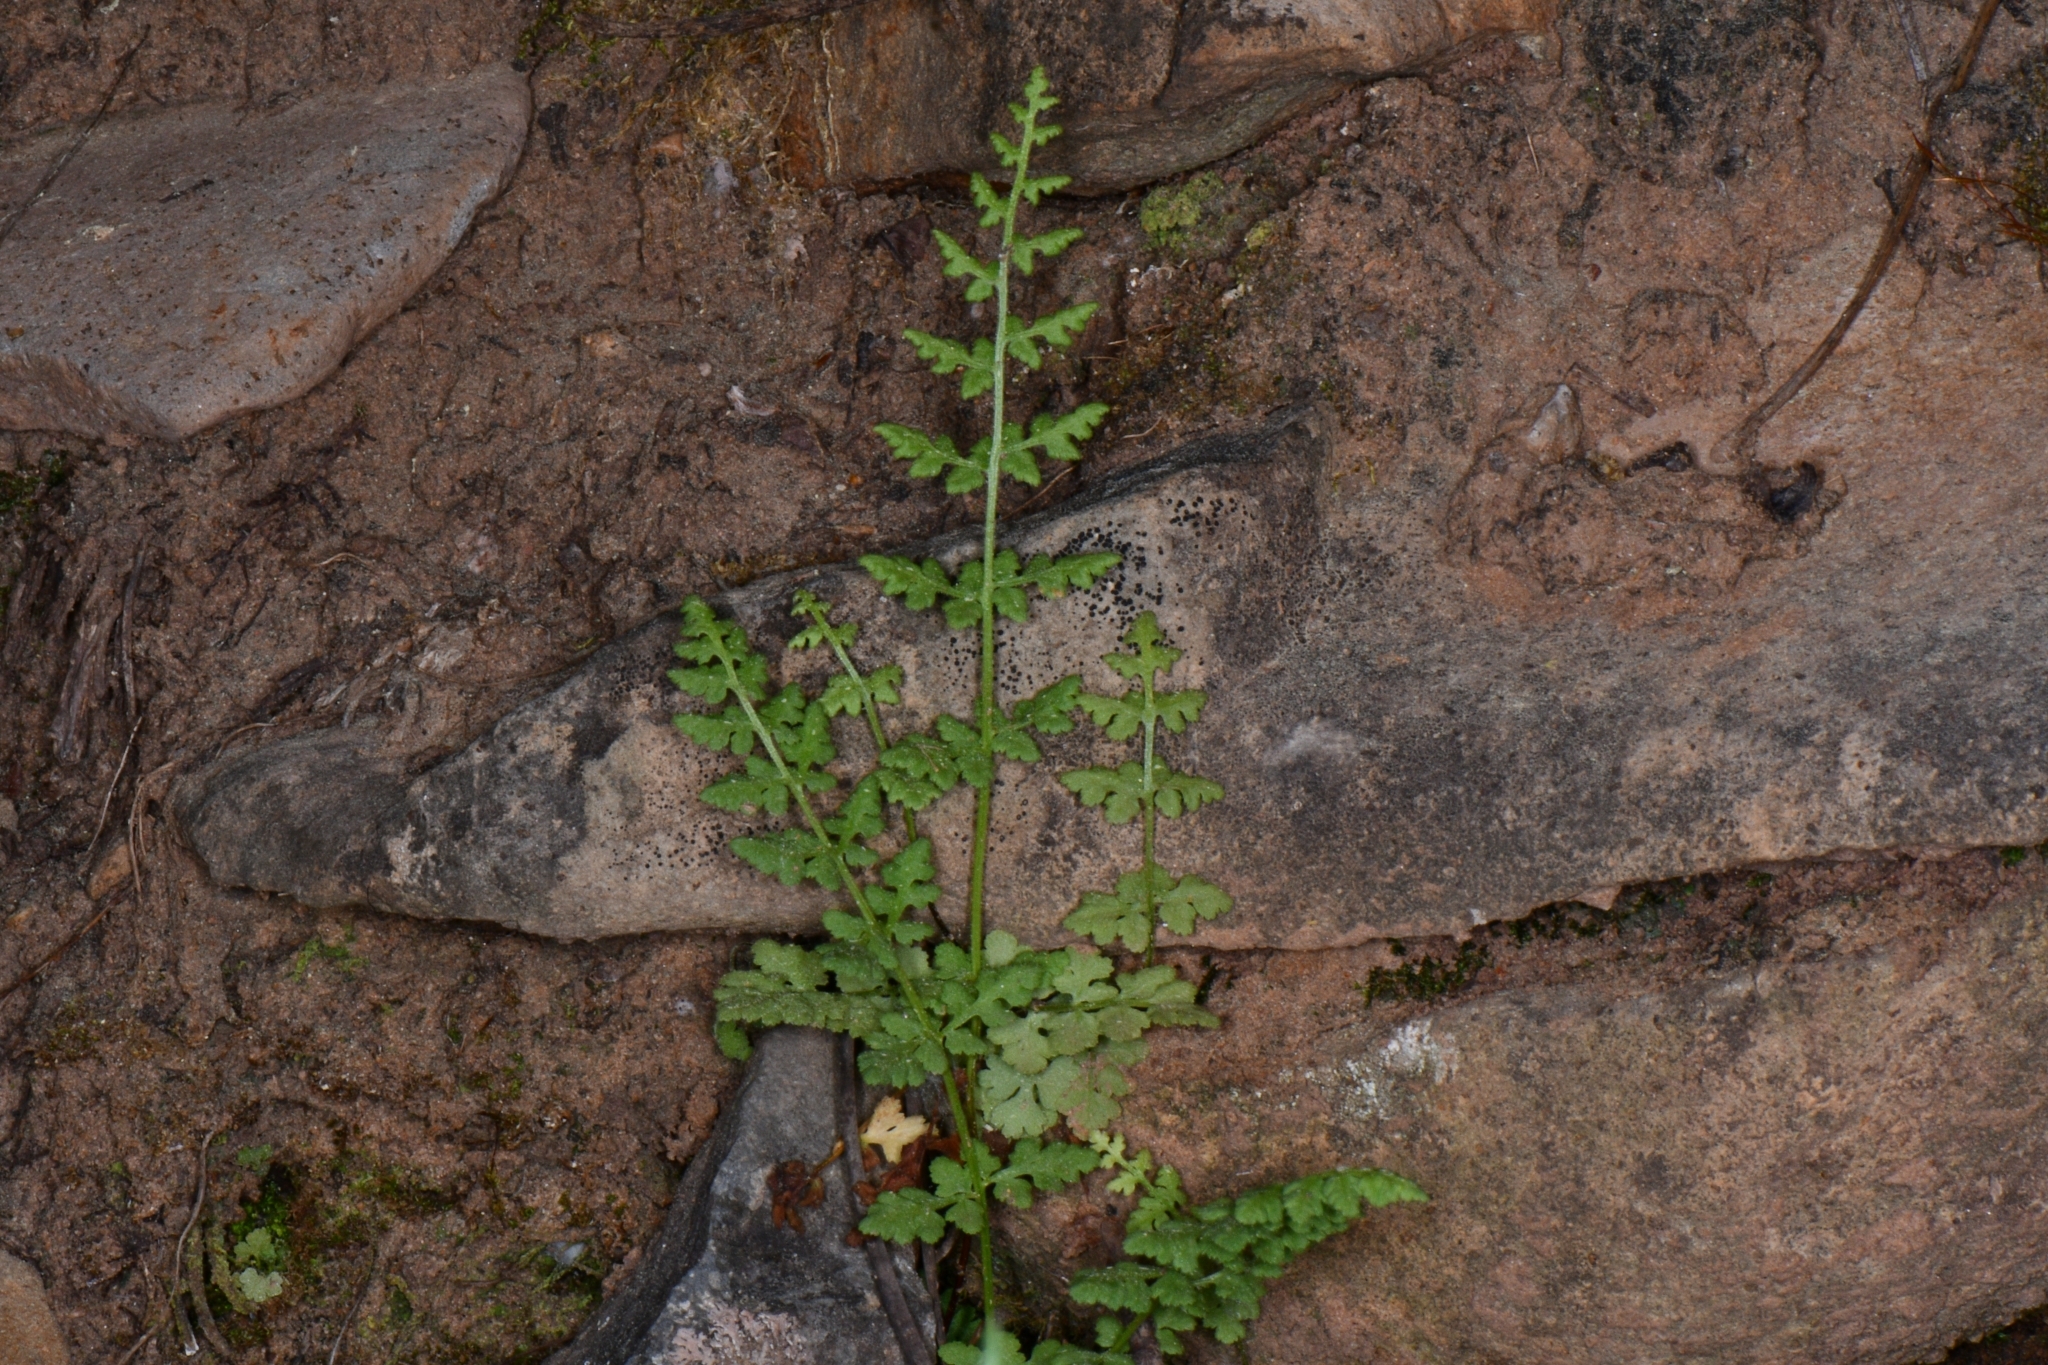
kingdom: Plantae
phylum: Tracheophyta
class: Polypodiopsida
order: Polypodiales
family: Woodsiaceae
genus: Physematium
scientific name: Physematium oreganum
